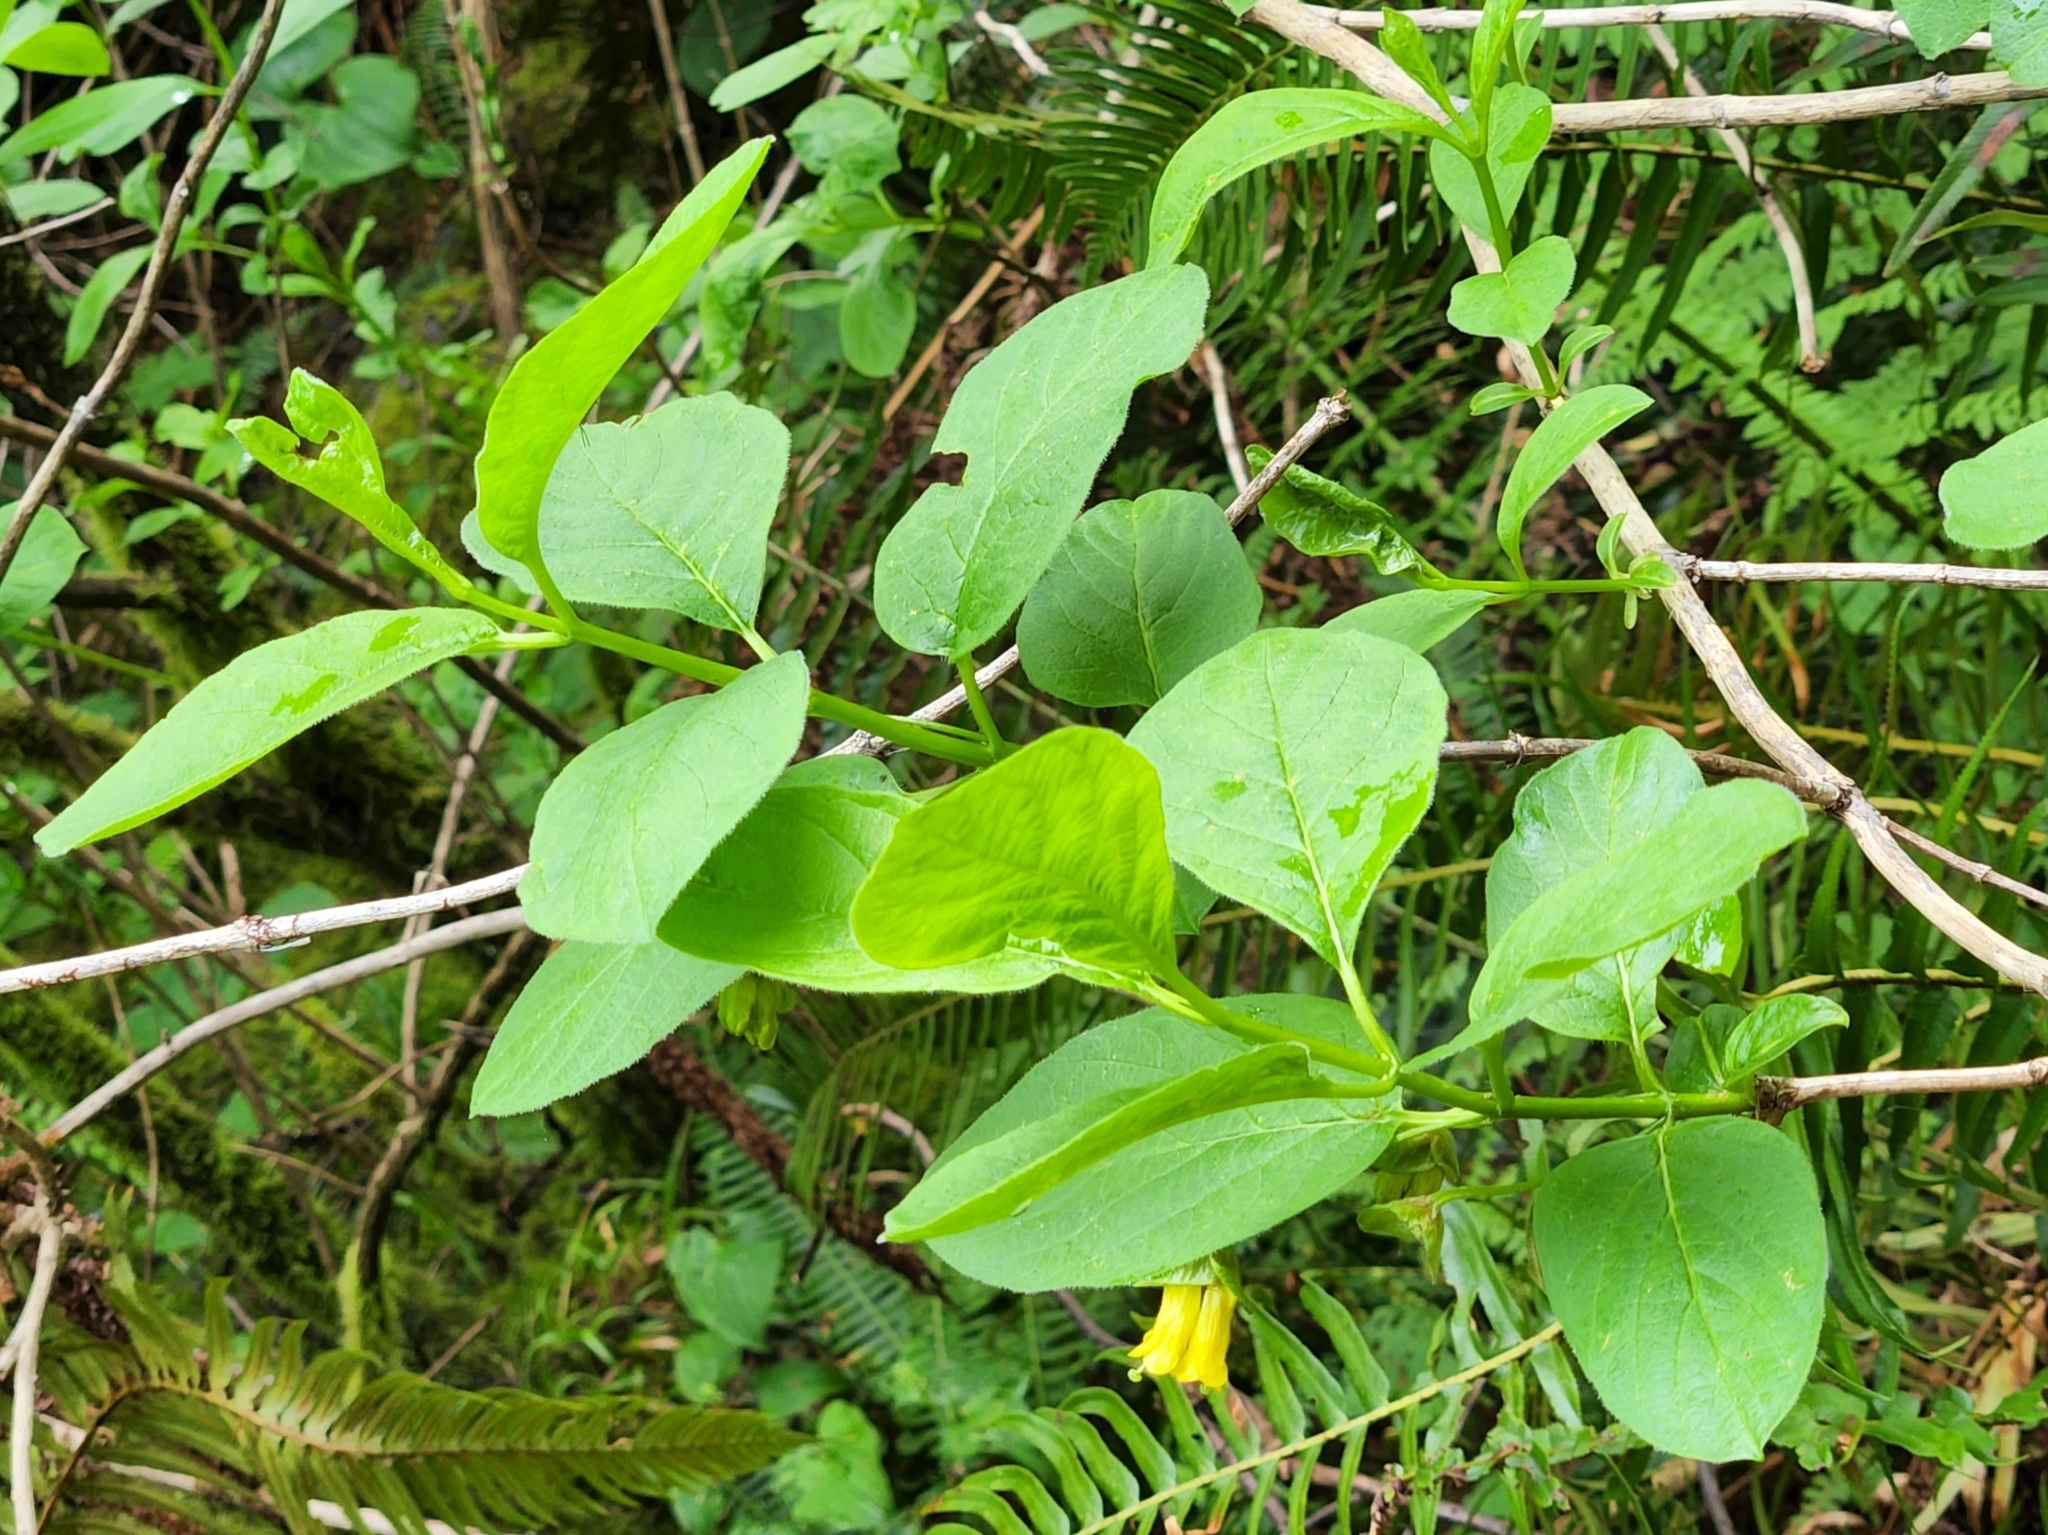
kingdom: Plantae
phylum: Tracheophyta
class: Magnoliopsida
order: Dipsacales
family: Caprifoliaceae
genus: Lonicera
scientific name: Lonicera involucrata
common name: Californian honeysuckle
